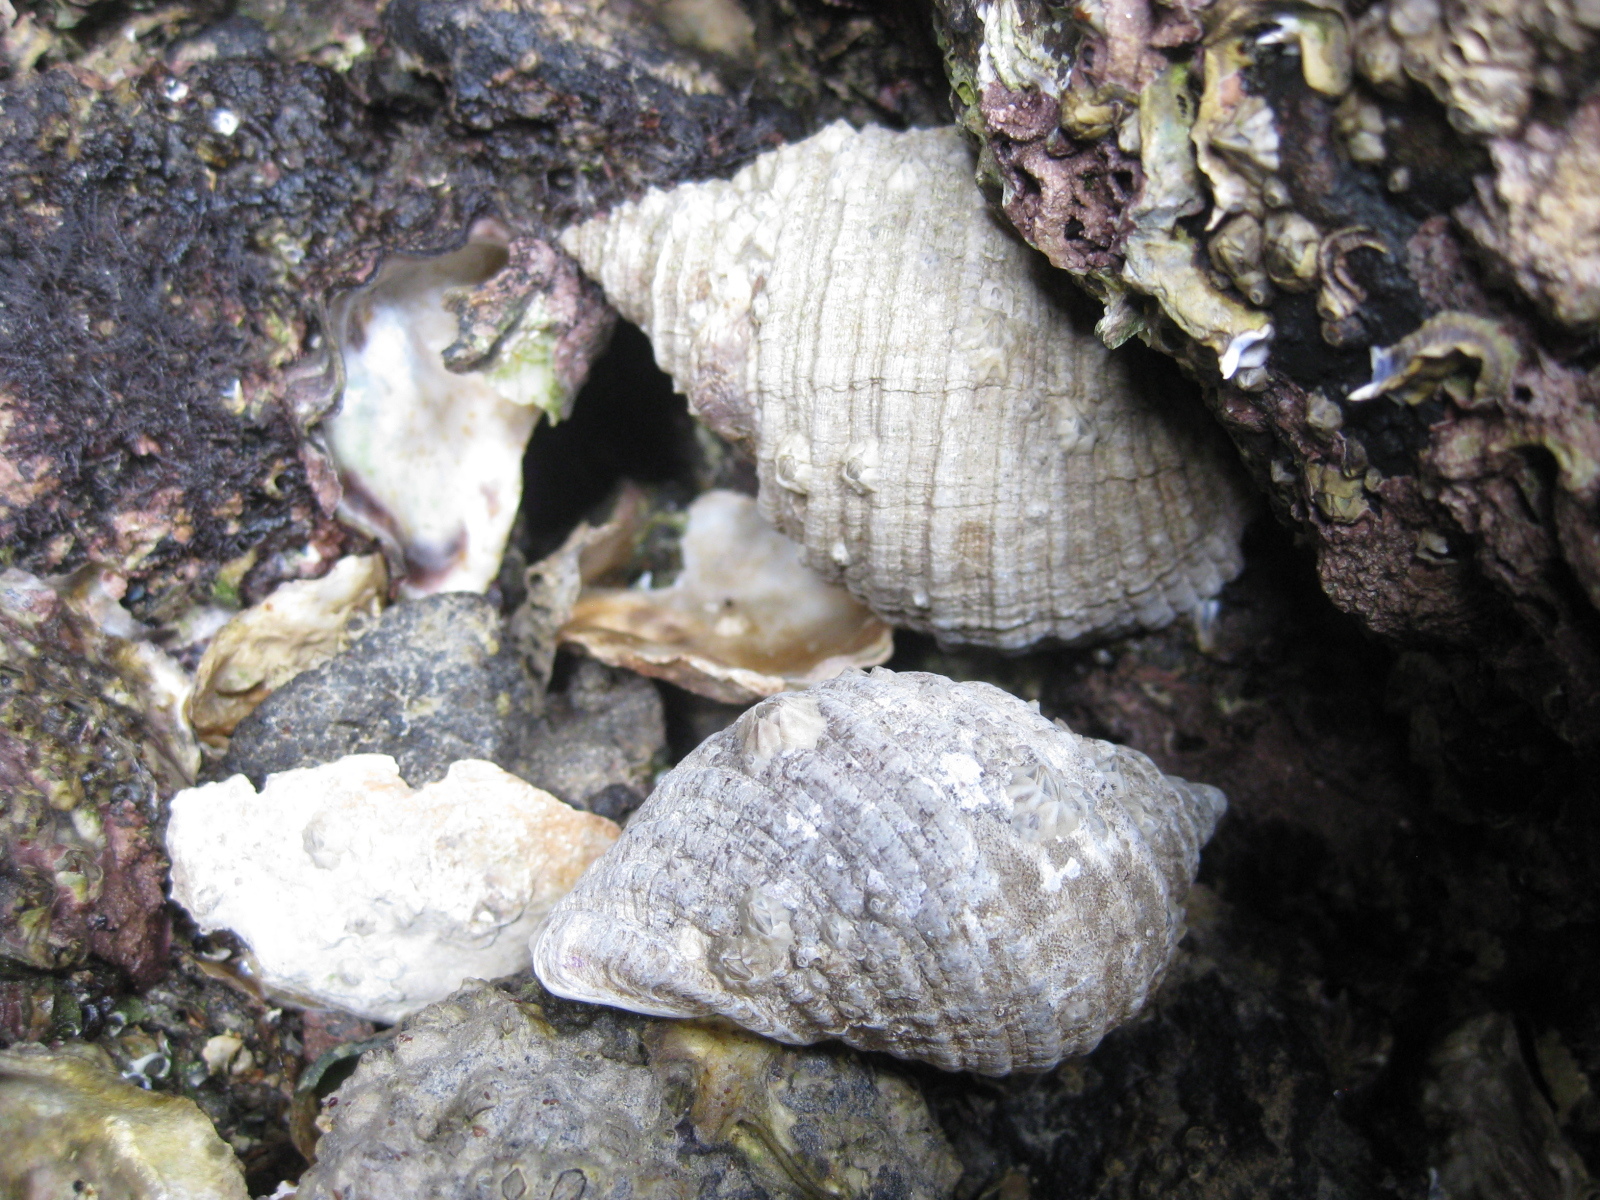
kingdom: Animalia
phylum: Mollusca
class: Gastropoda
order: Neogastropoda
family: Muricidae
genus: Dicathais
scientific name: Dicathais orbita
